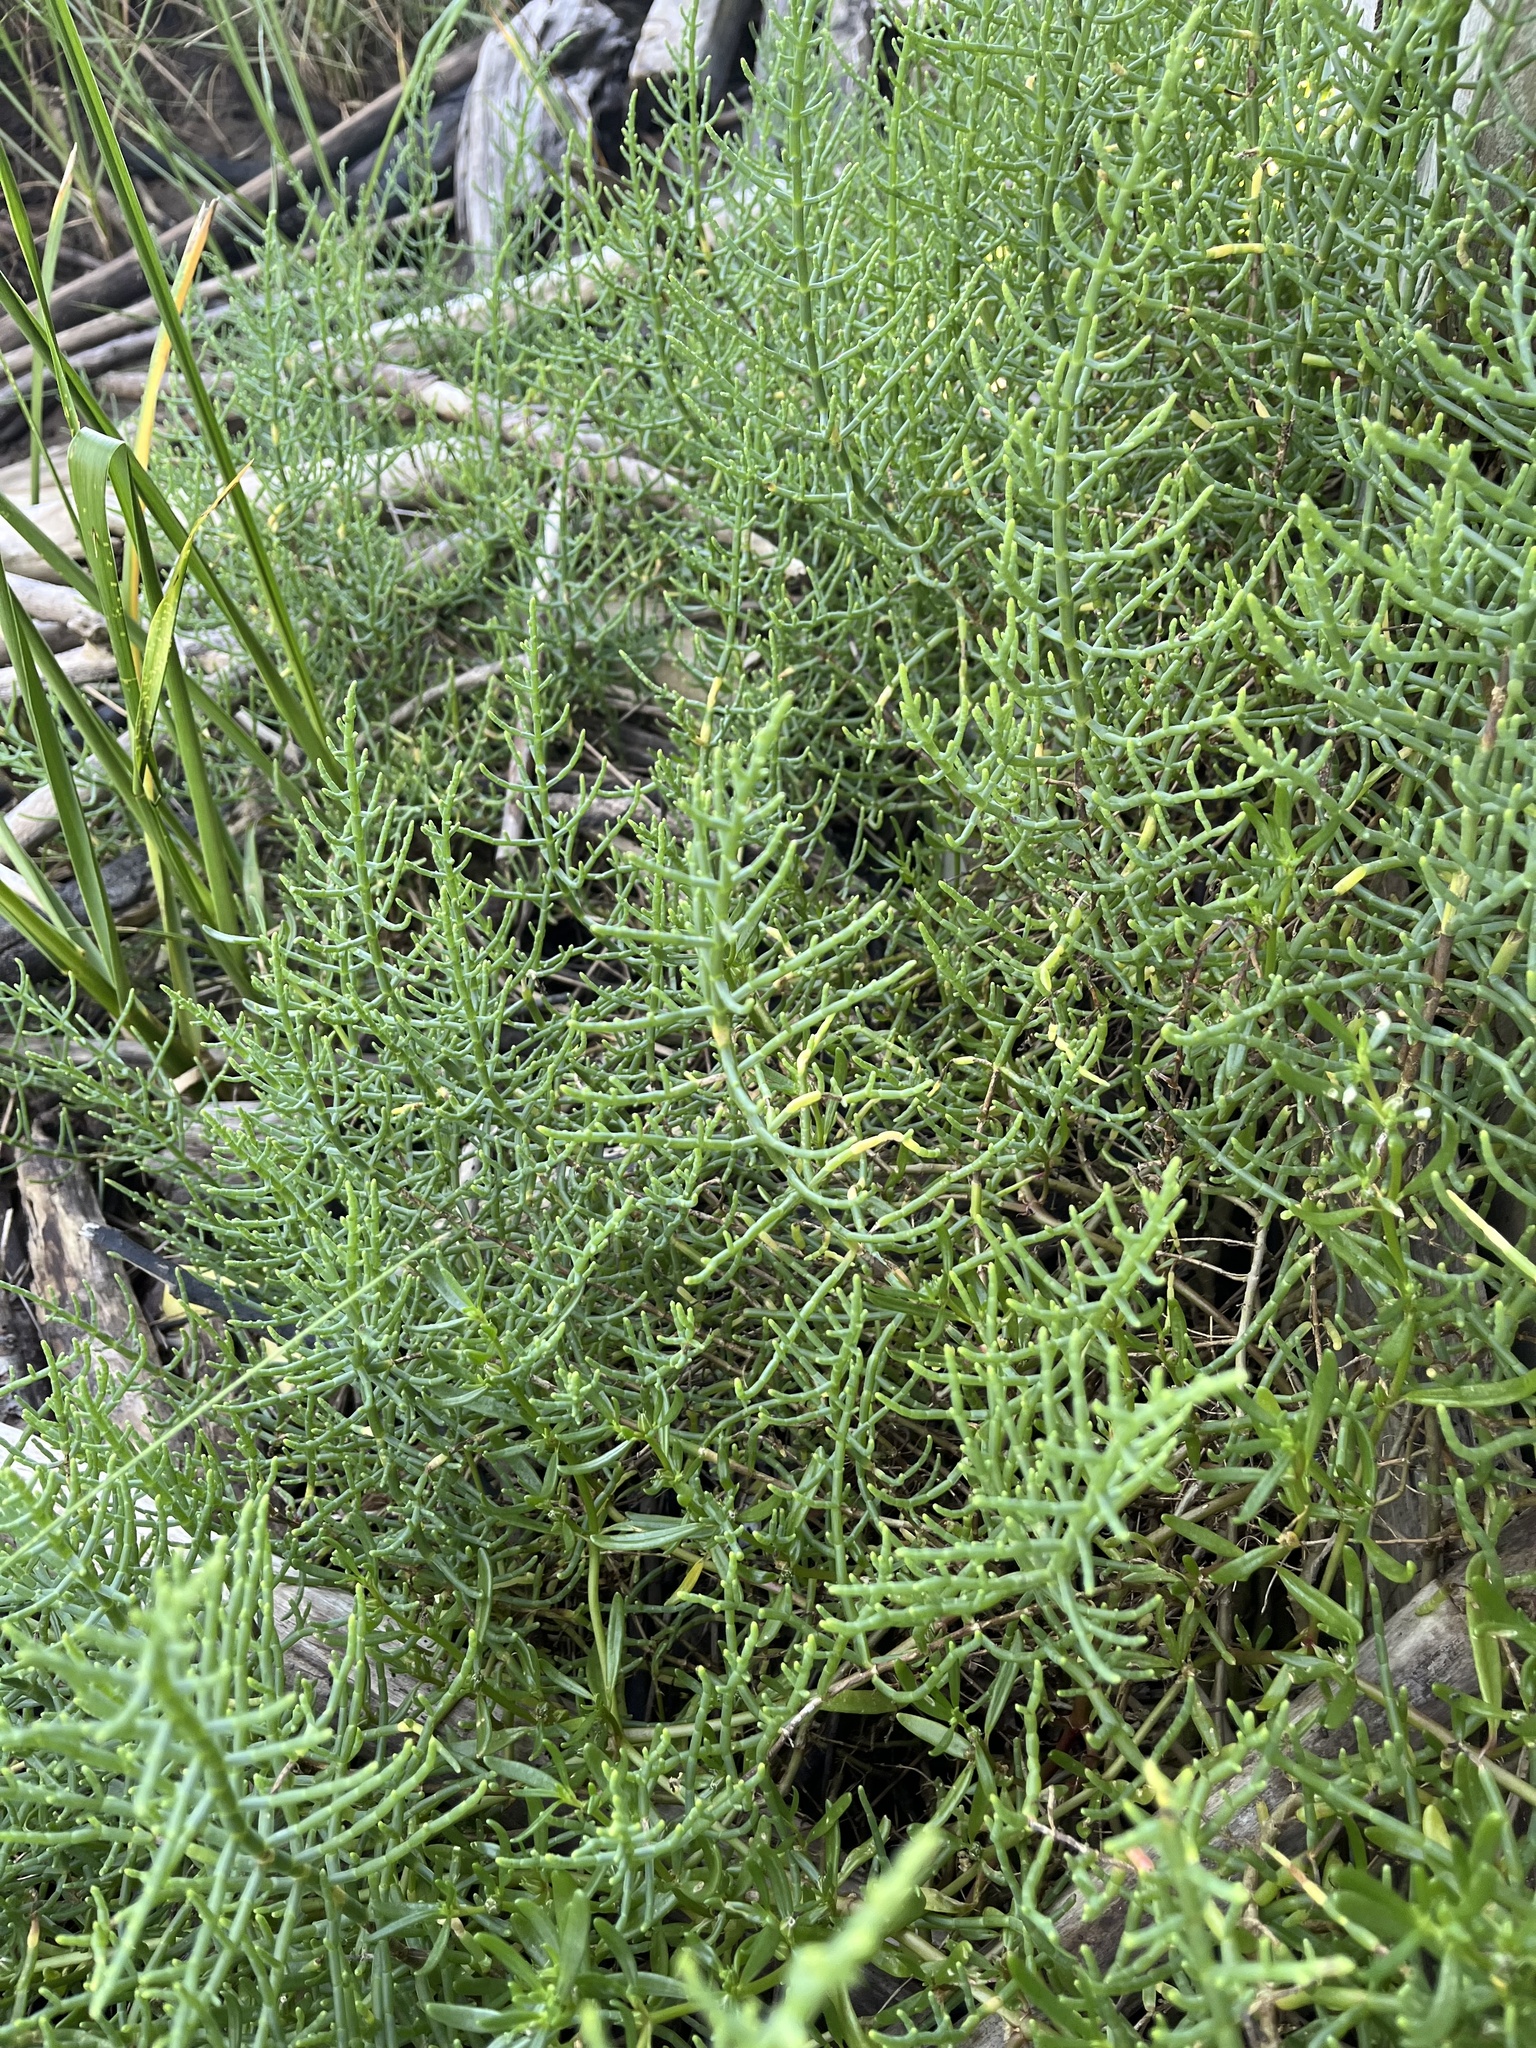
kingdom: Plantae
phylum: Tracheophyta
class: Magnoliopsida
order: Caryophyllales
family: Amaranthaceae
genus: Salicornia
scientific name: Salicornia ambigua
